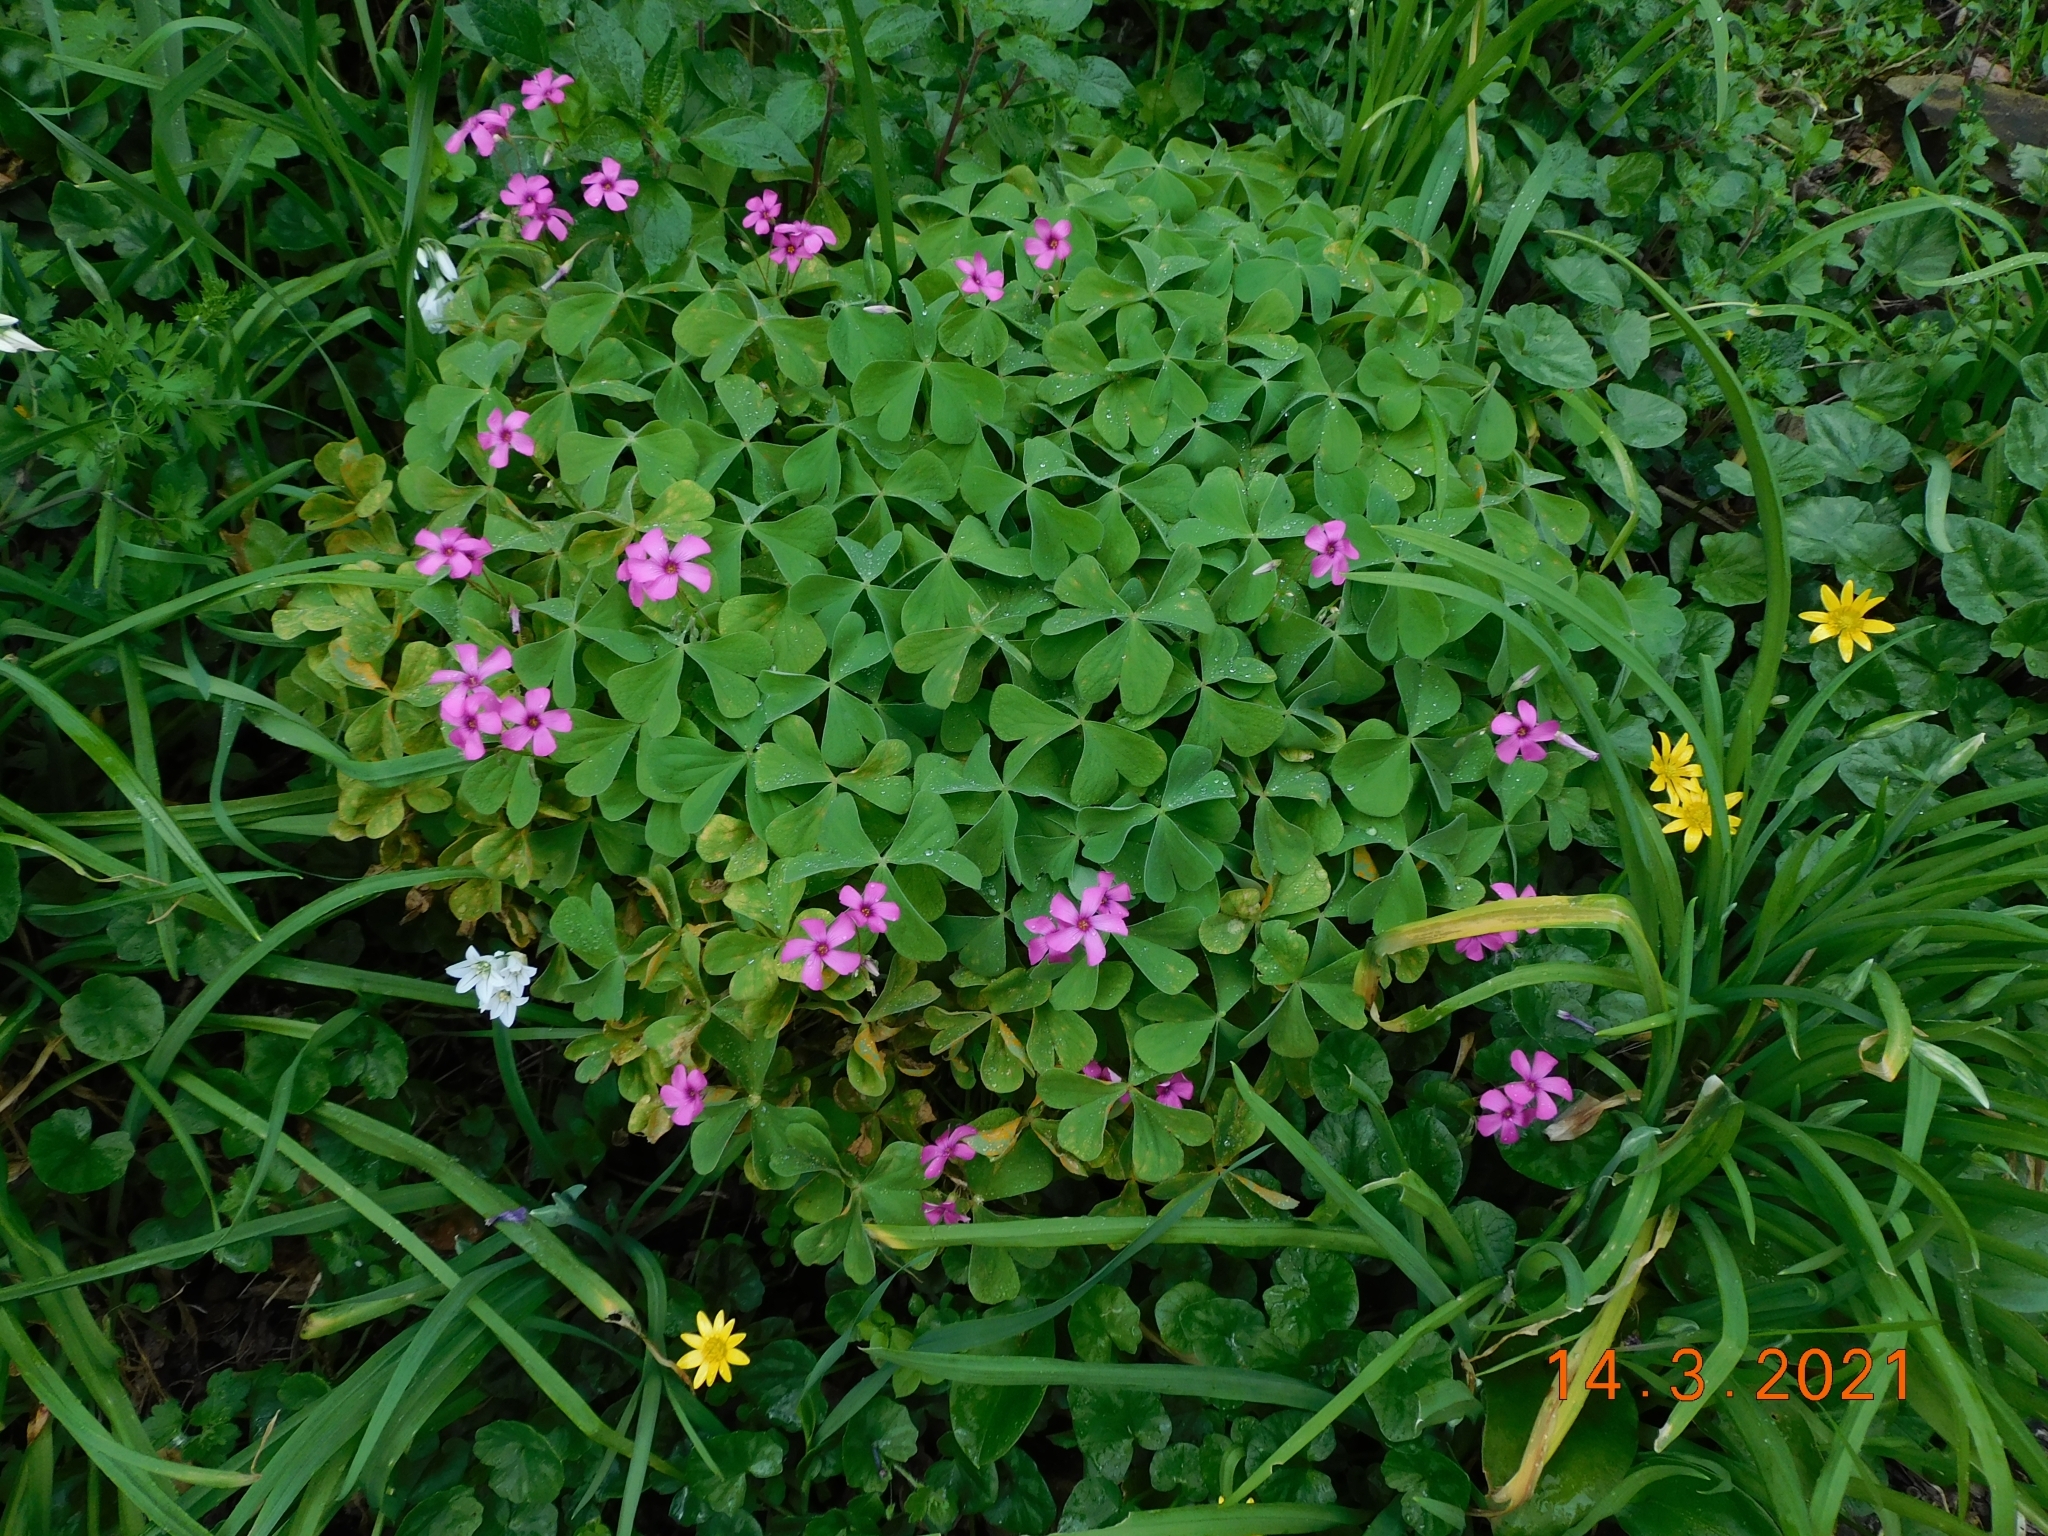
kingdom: Plantae
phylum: Tracheophyta
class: Magnoliopsida
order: Oxalidales
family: Oxalidaceae
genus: Oxalis
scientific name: Oxalis articulata
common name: Pink-sorrel
